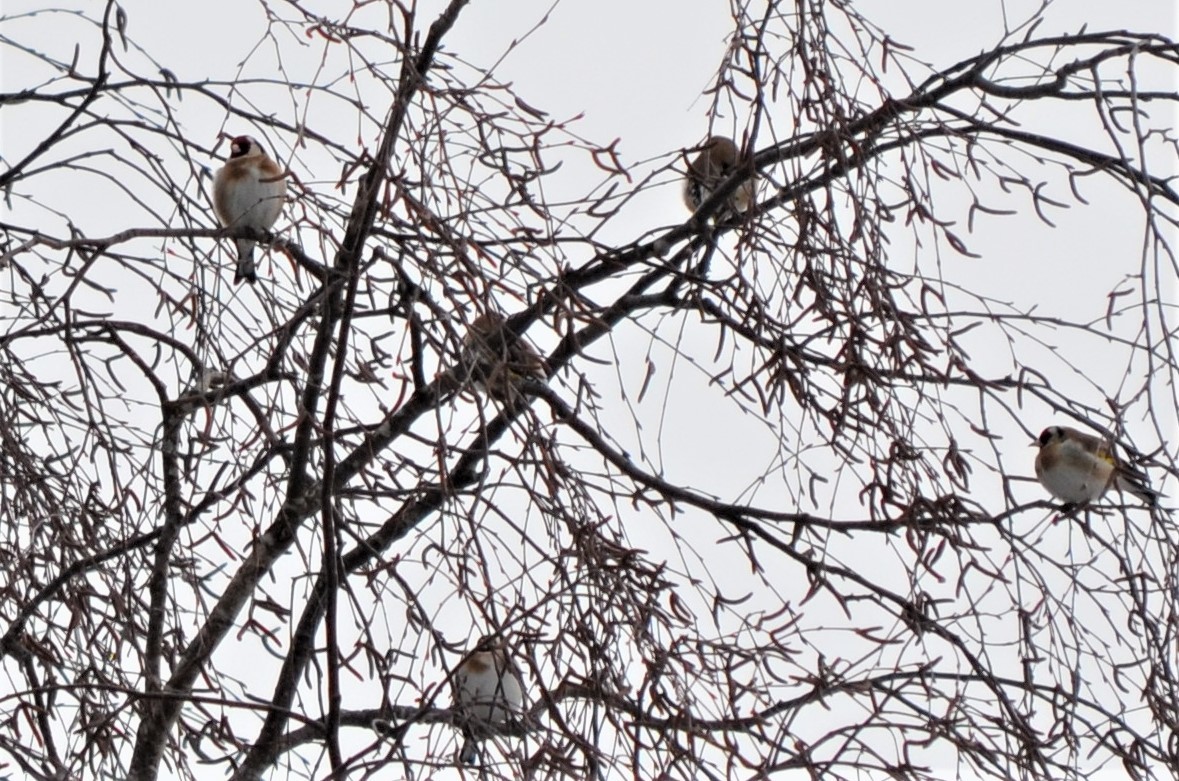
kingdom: Animalia
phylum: Chordata
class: Aves
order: Passeriformes
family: Fringillidae
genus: Carduelis
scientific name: Carduelis carduelis
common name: European goldfinch
